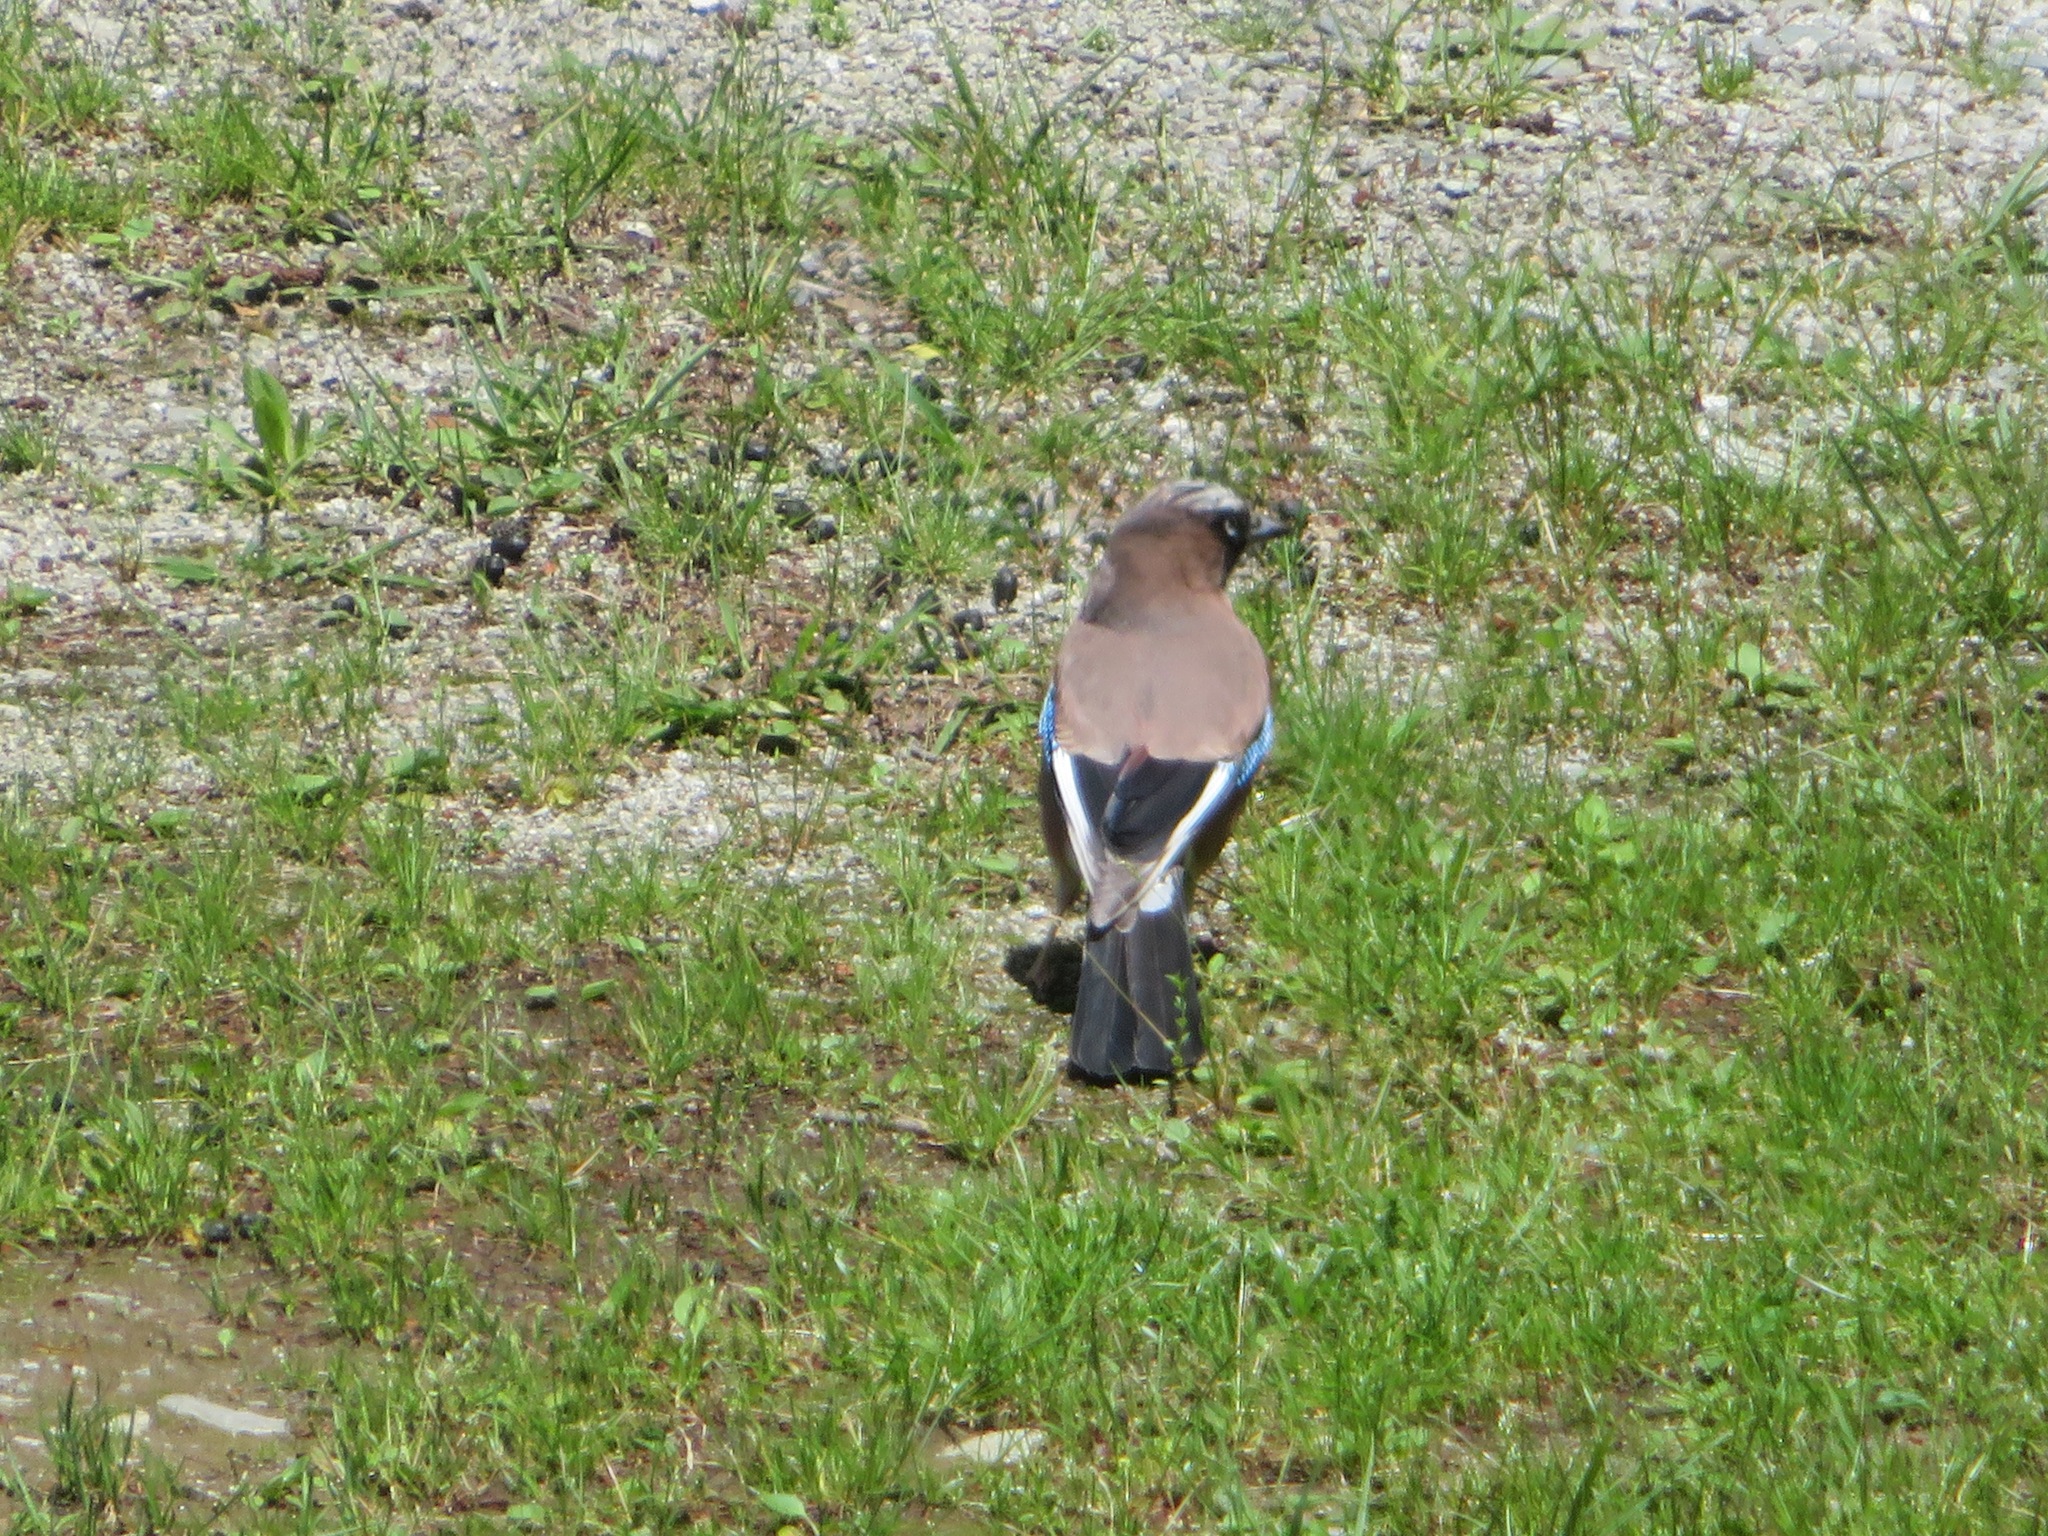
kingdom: Animalia
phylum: Chordata
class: Aves
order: Passeriformes
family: Corvidae
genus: Garrulus
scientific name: Garrulus glandarius
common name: Eurasian jay
